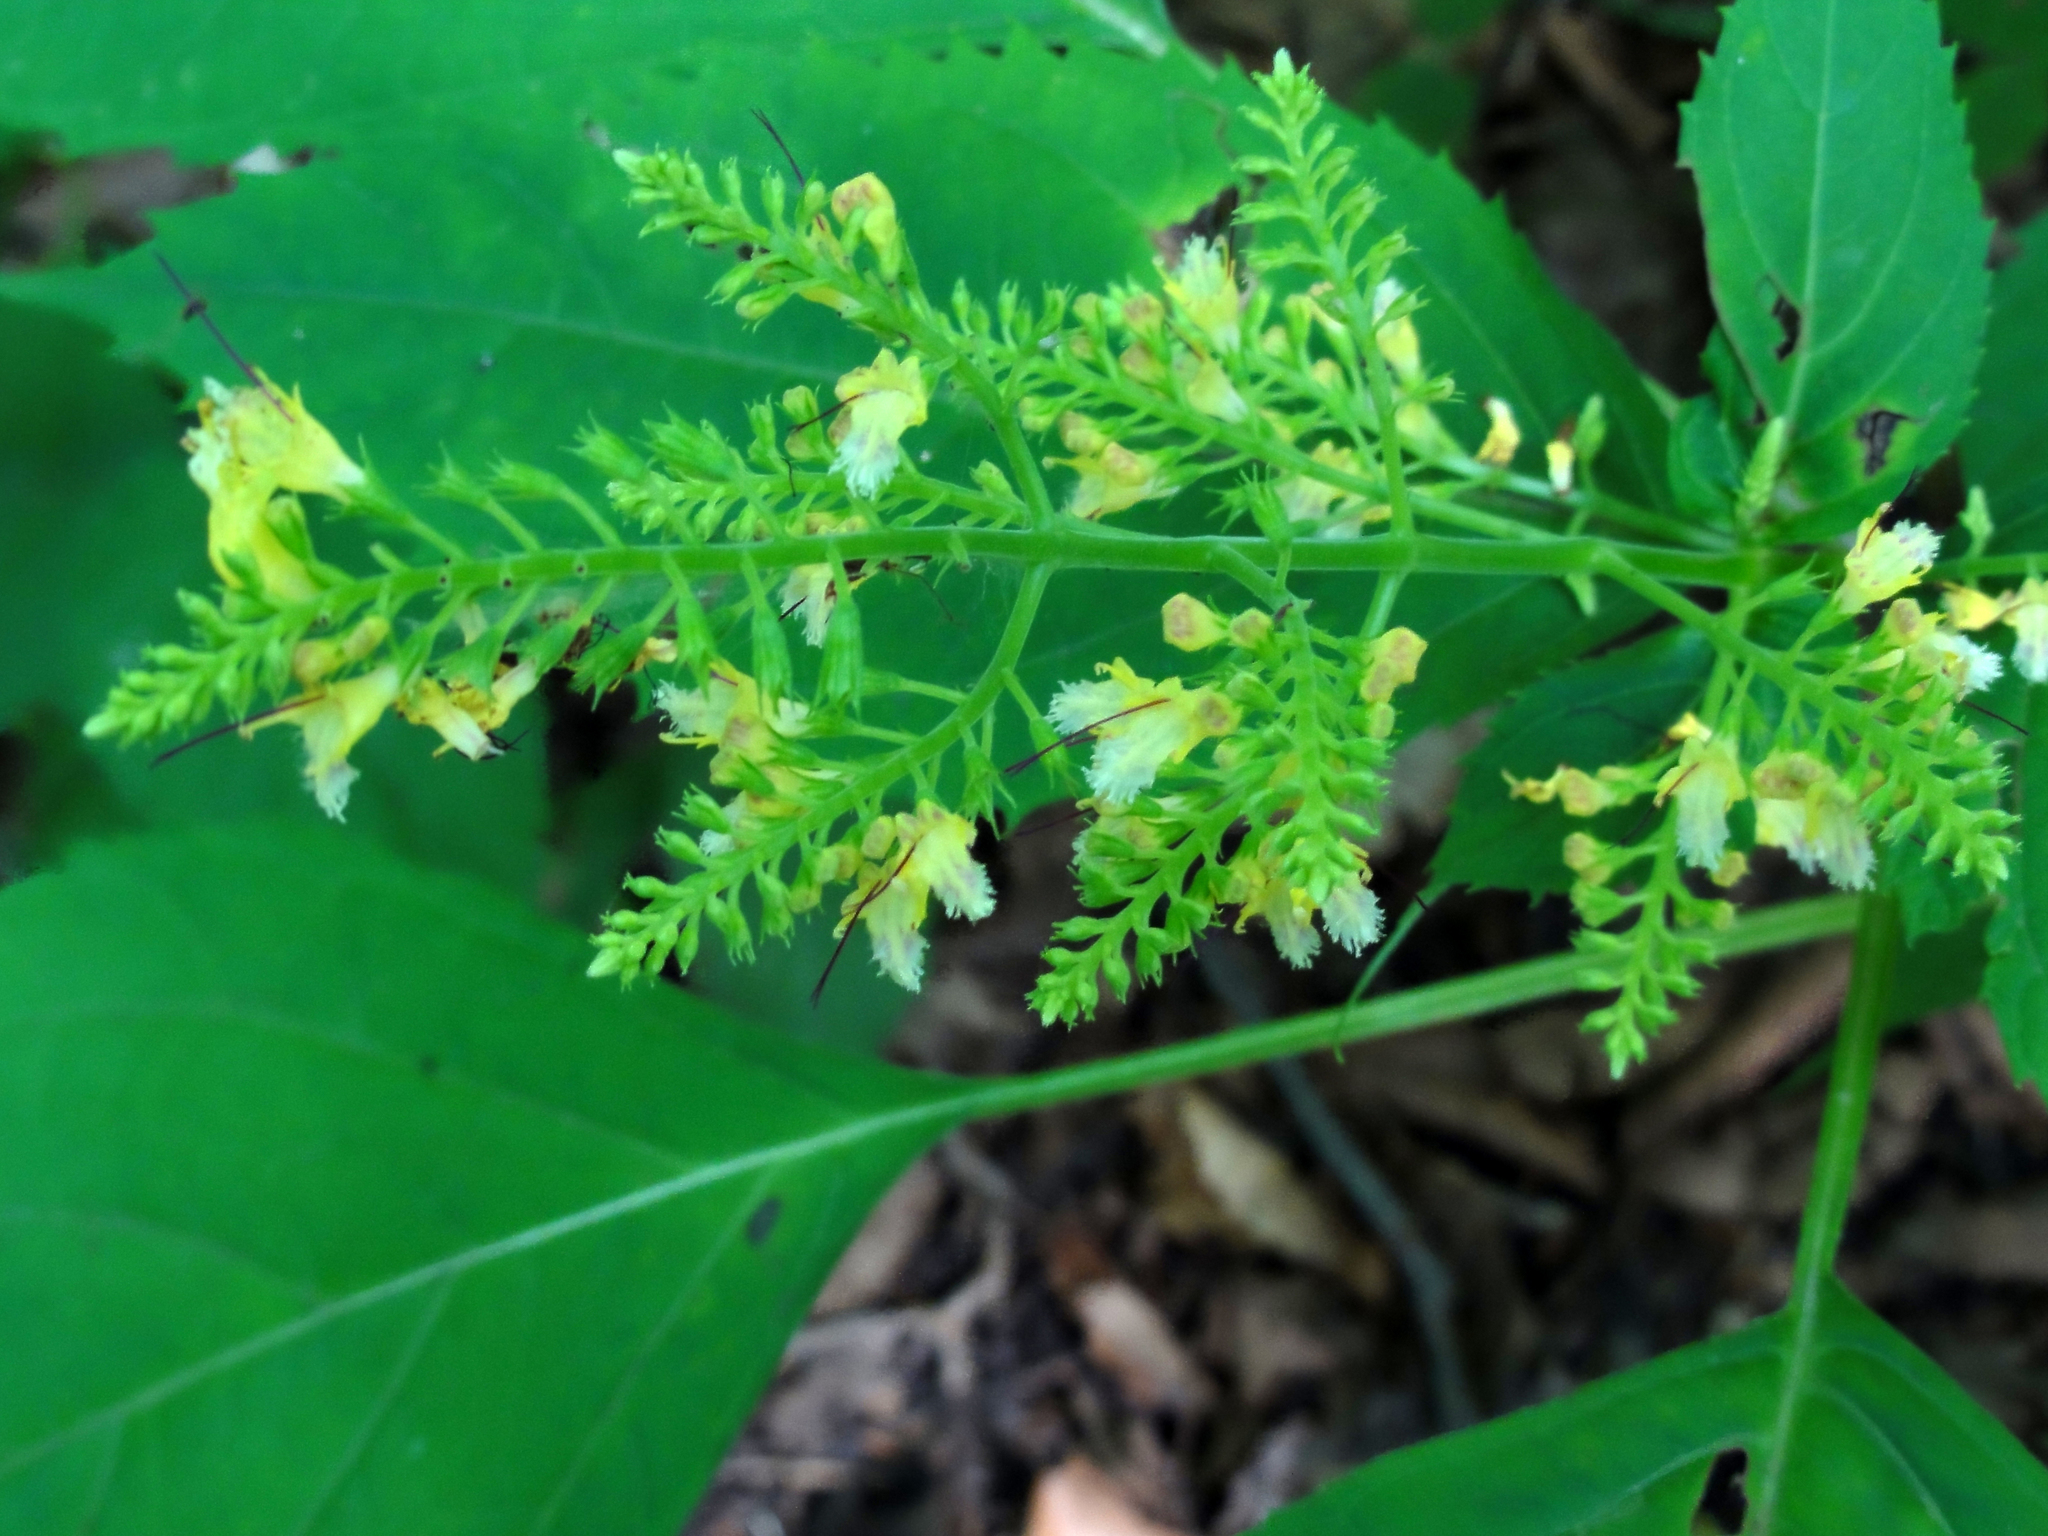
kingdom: Plantae
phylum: Tracheophyta
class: Magnoliopsida
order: Lamiales
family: Lamiaceae
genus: Collinsonia
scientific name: Collinsonia canadensis
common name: Northern horsebalm
